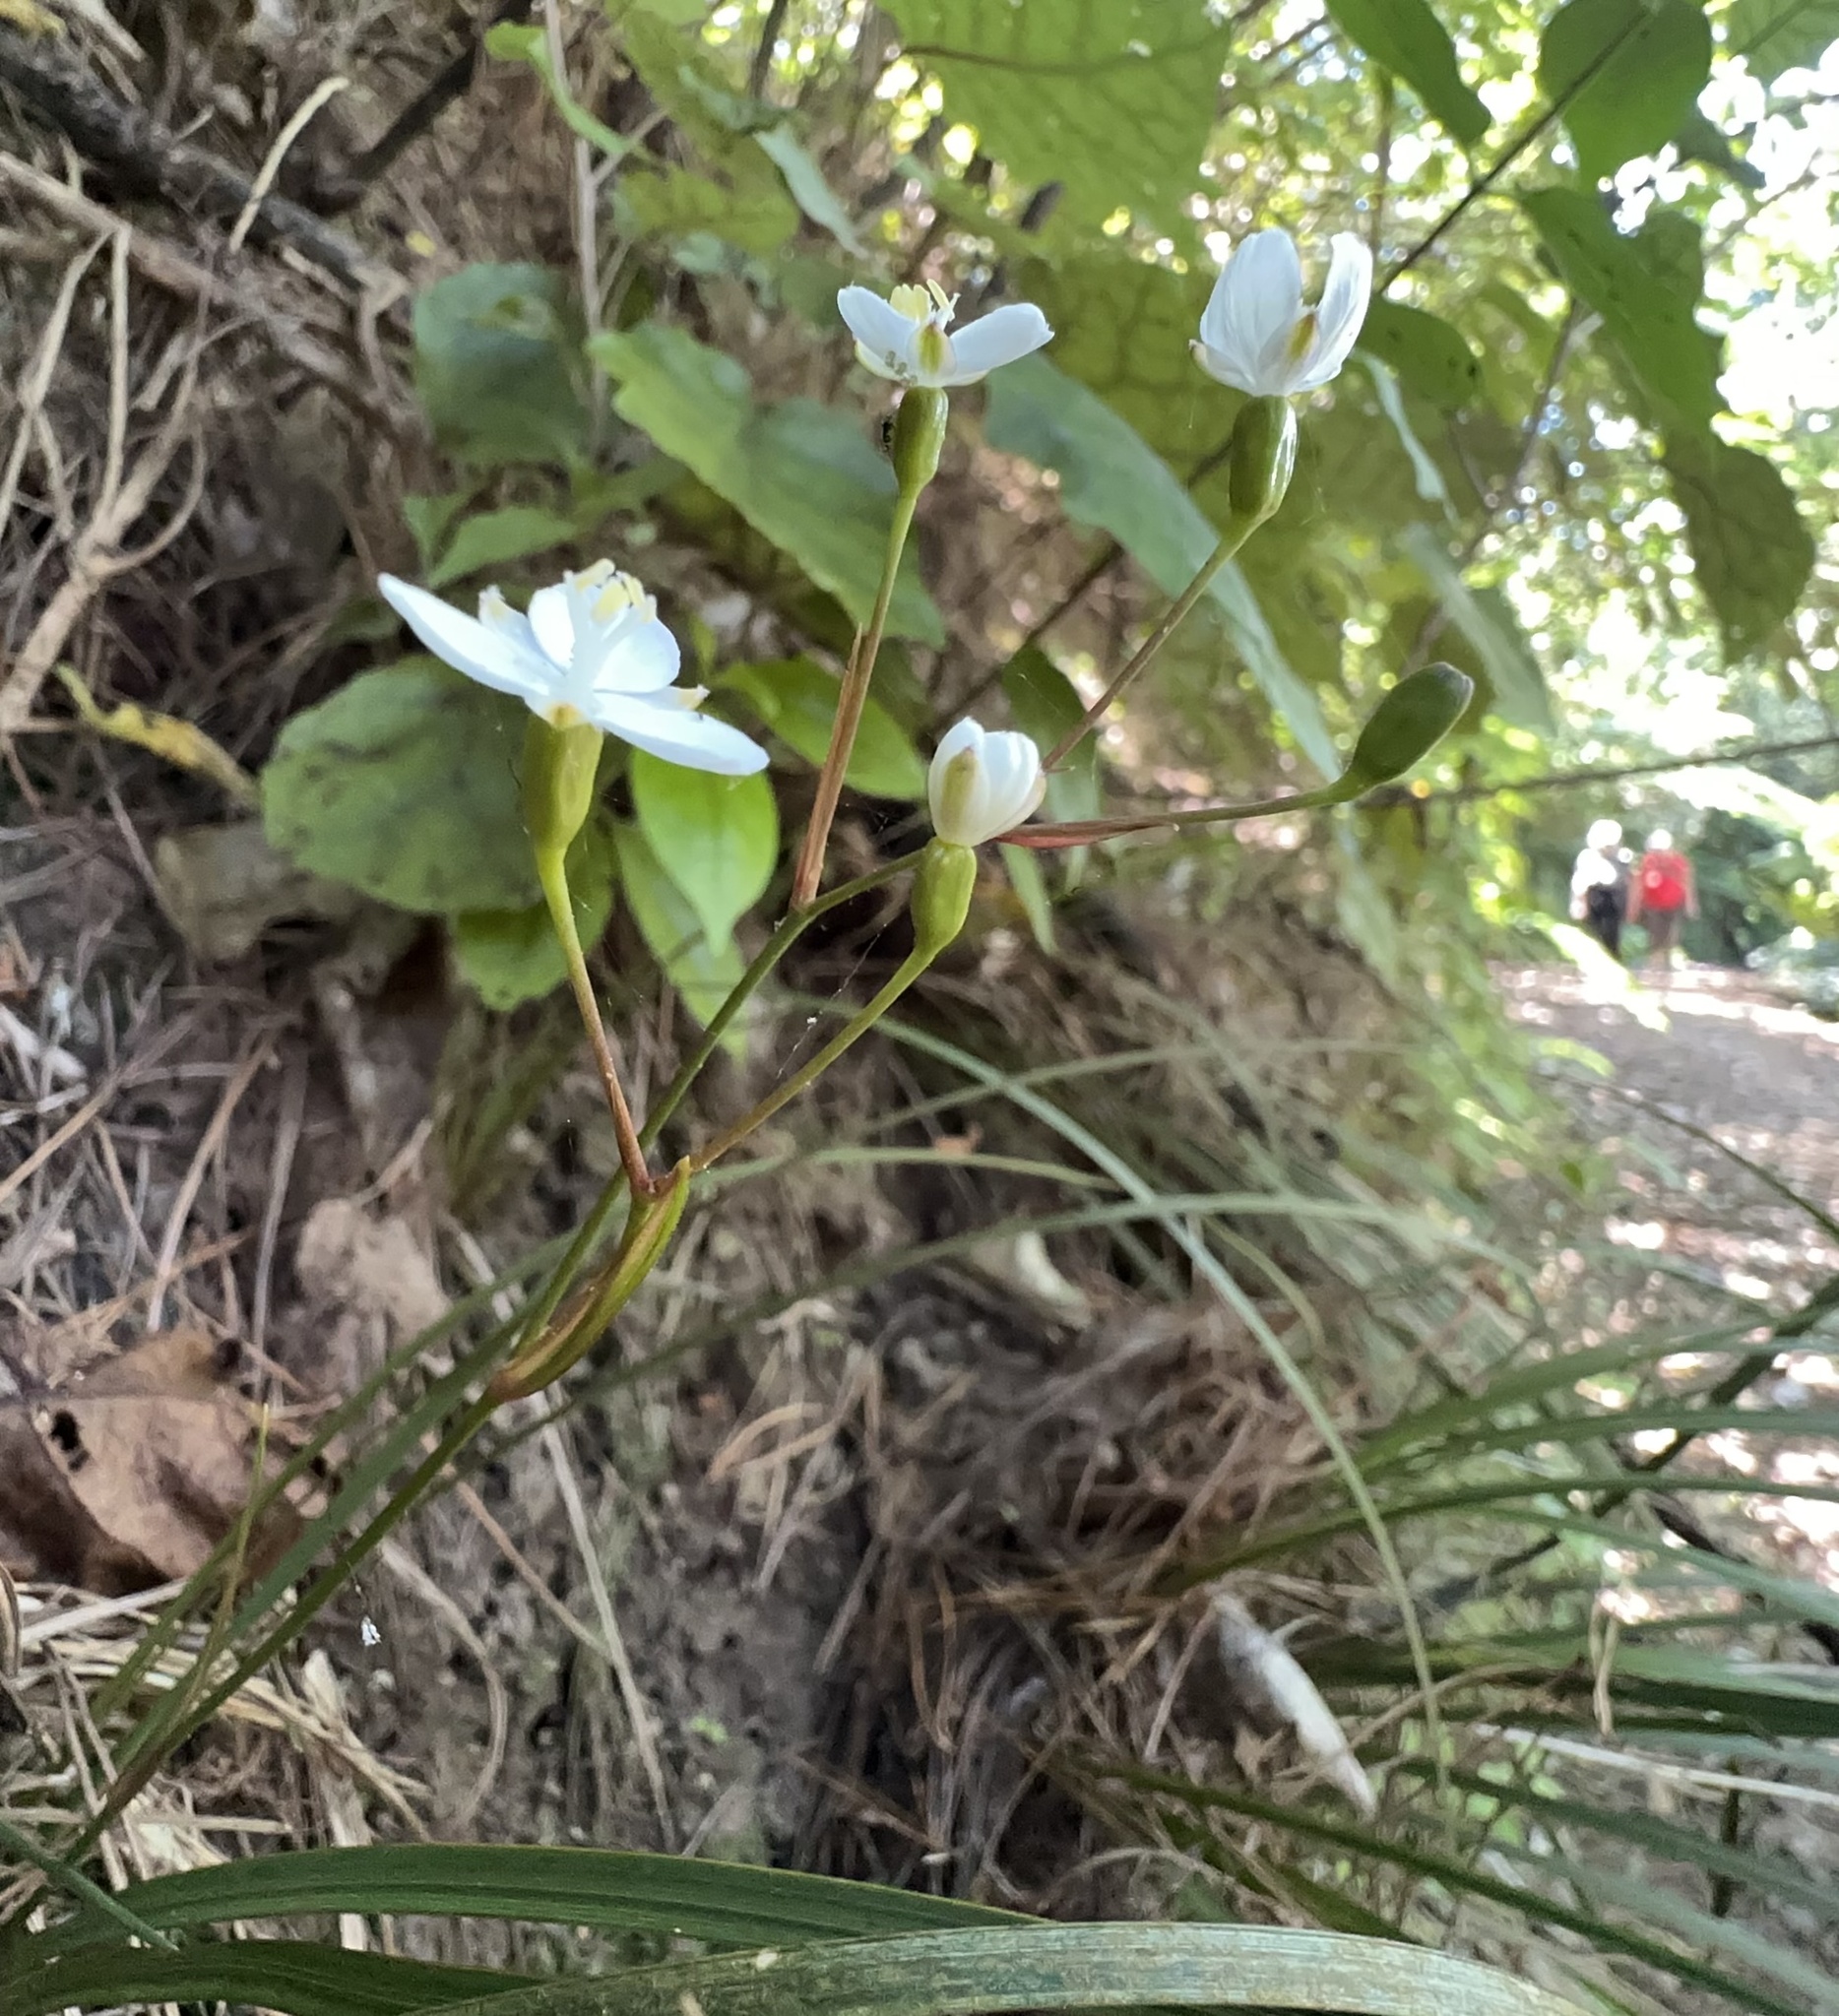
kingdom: Plantae
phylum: Tracheophyta
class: Liliopsida
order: Asparagales
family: Iridaceae
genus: Libertia
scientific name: Libertia ixioides
